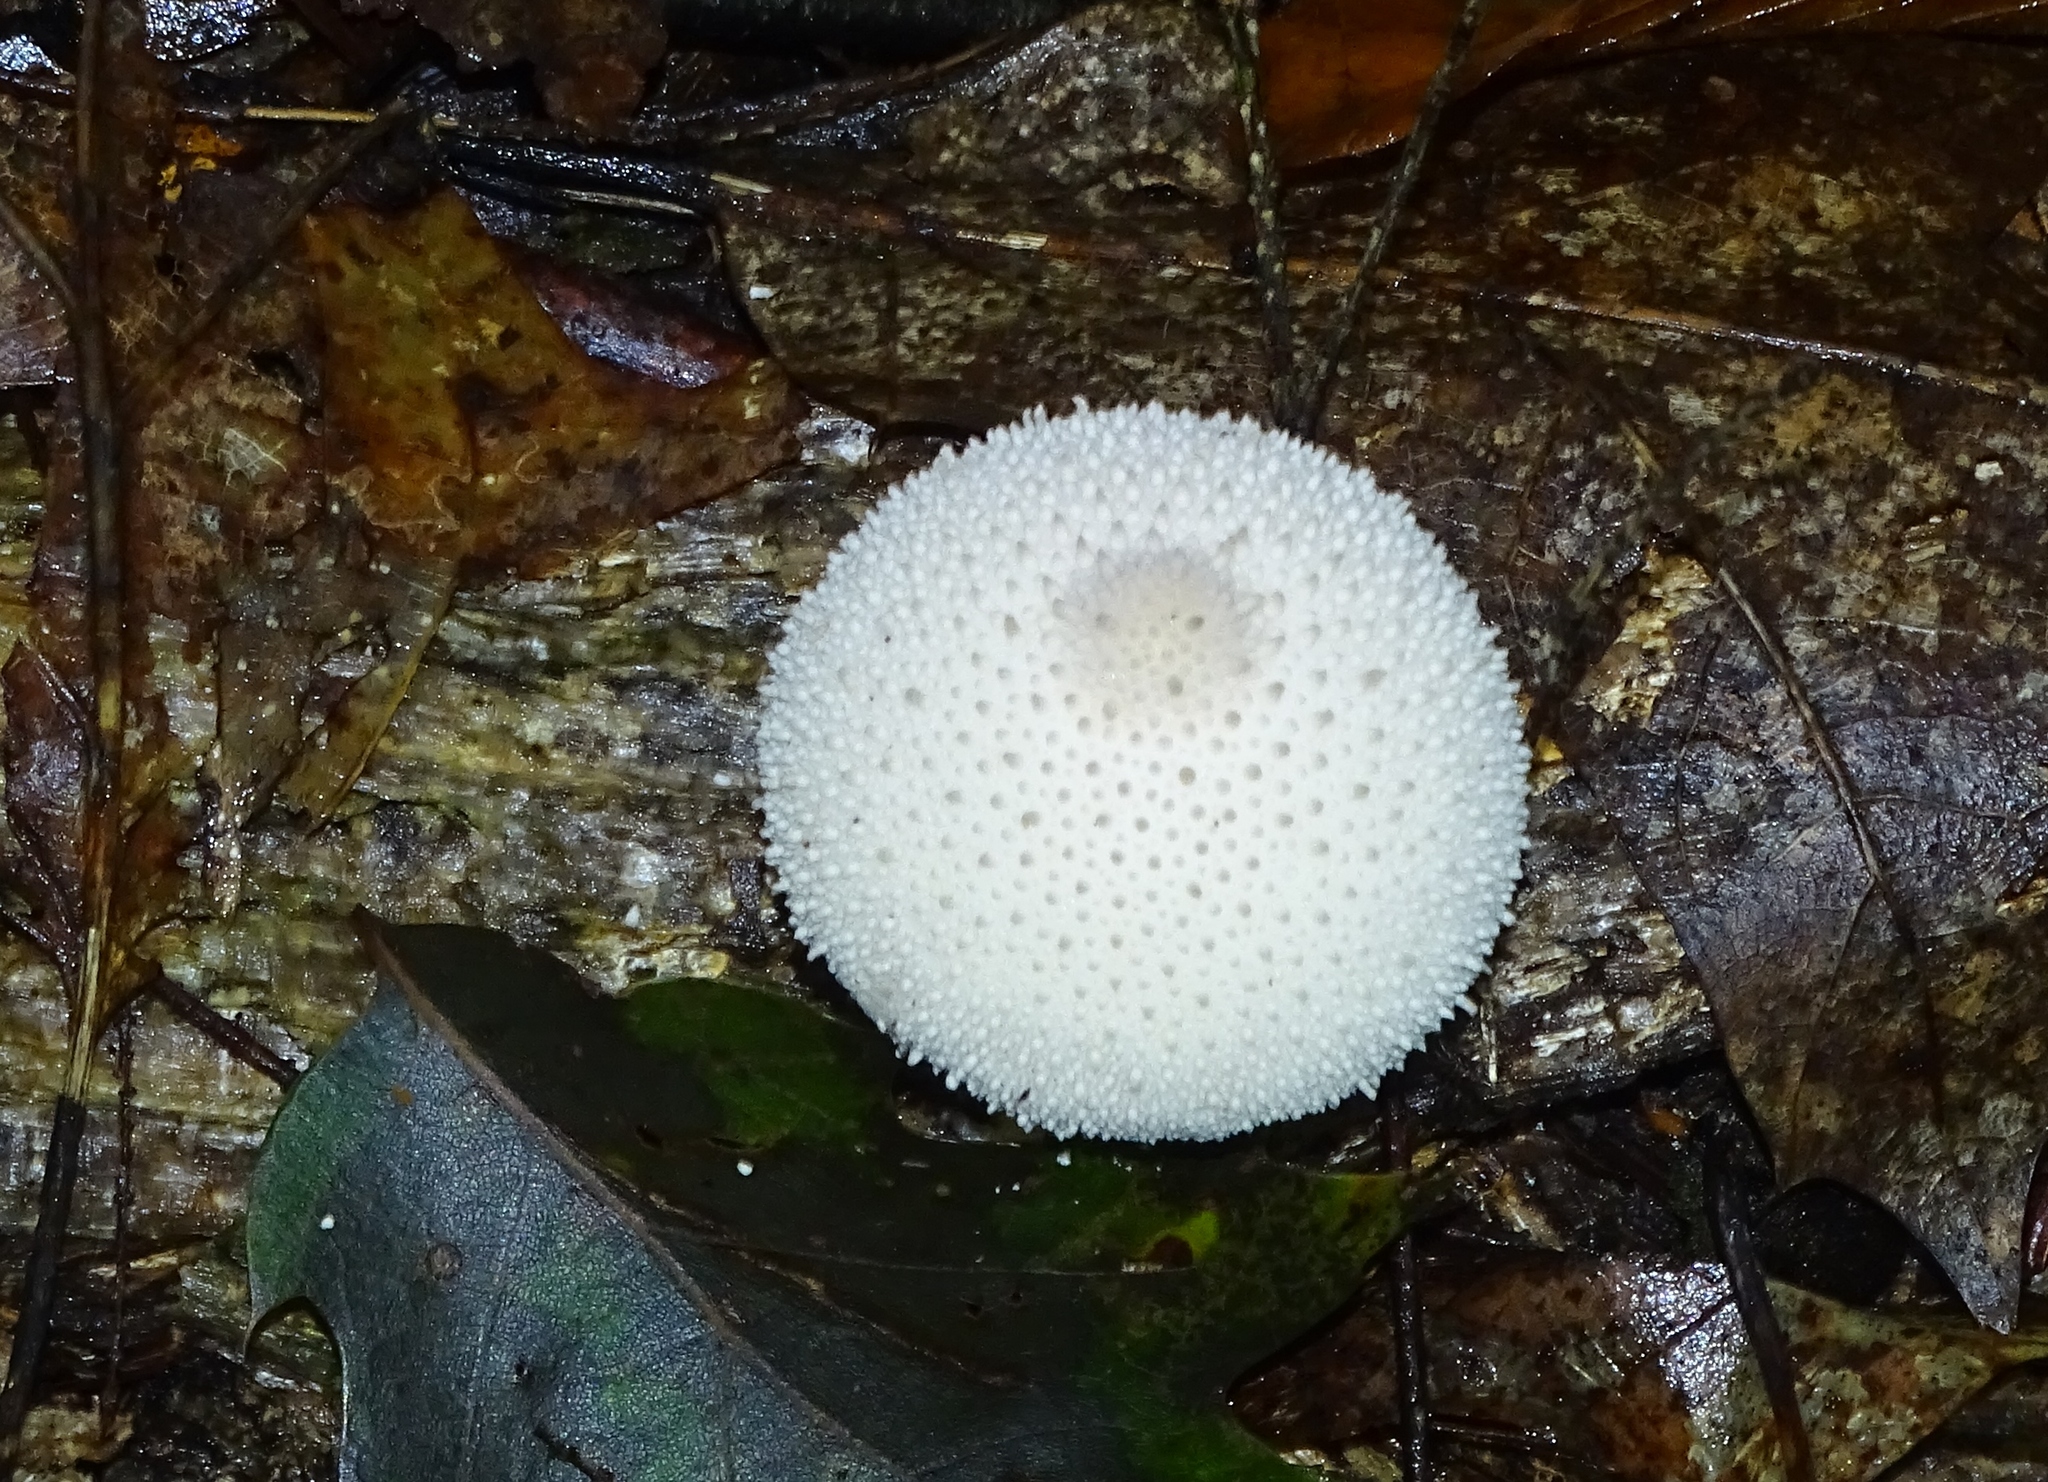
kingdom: Fungi
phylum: Basidiomycota
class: Agaricomycetes
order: Agaricales
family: Lycoperdaceae
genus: Lycoperdon
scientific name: Lycoperdon perlatum
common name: Common puffball
